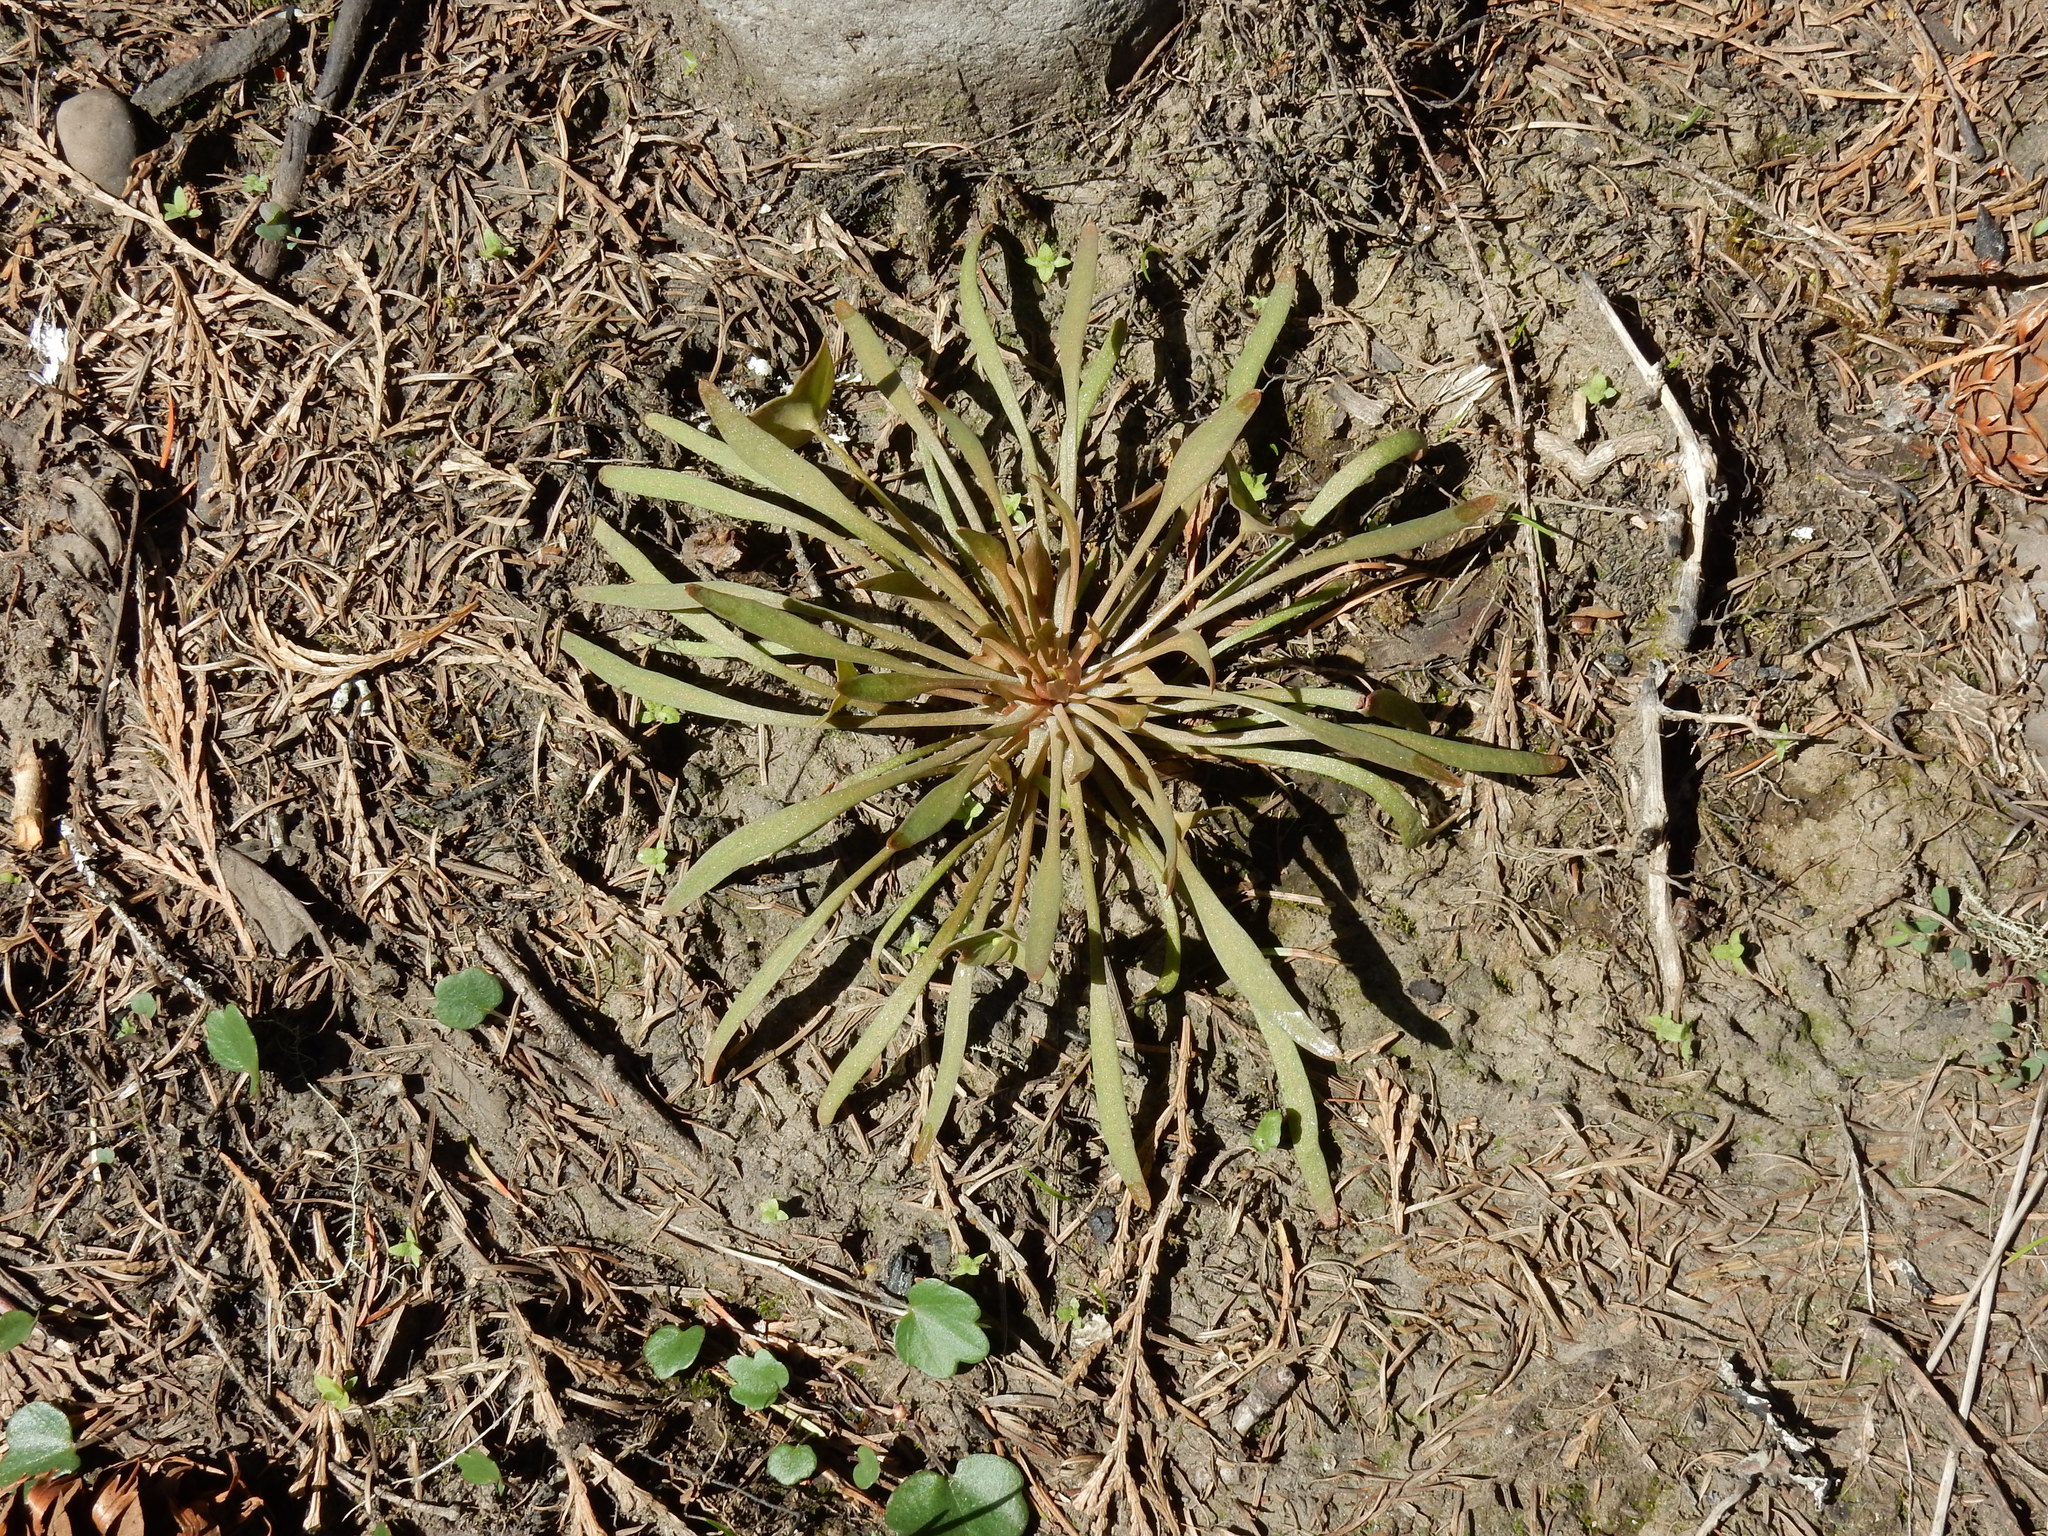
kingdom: Plantae
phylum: Tracheophyta
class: Magnoliopsida
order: Caryophyllales
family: Montiaceae
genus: Claytonia
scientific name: Claytonia parviflora
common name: Indian-lettuce
